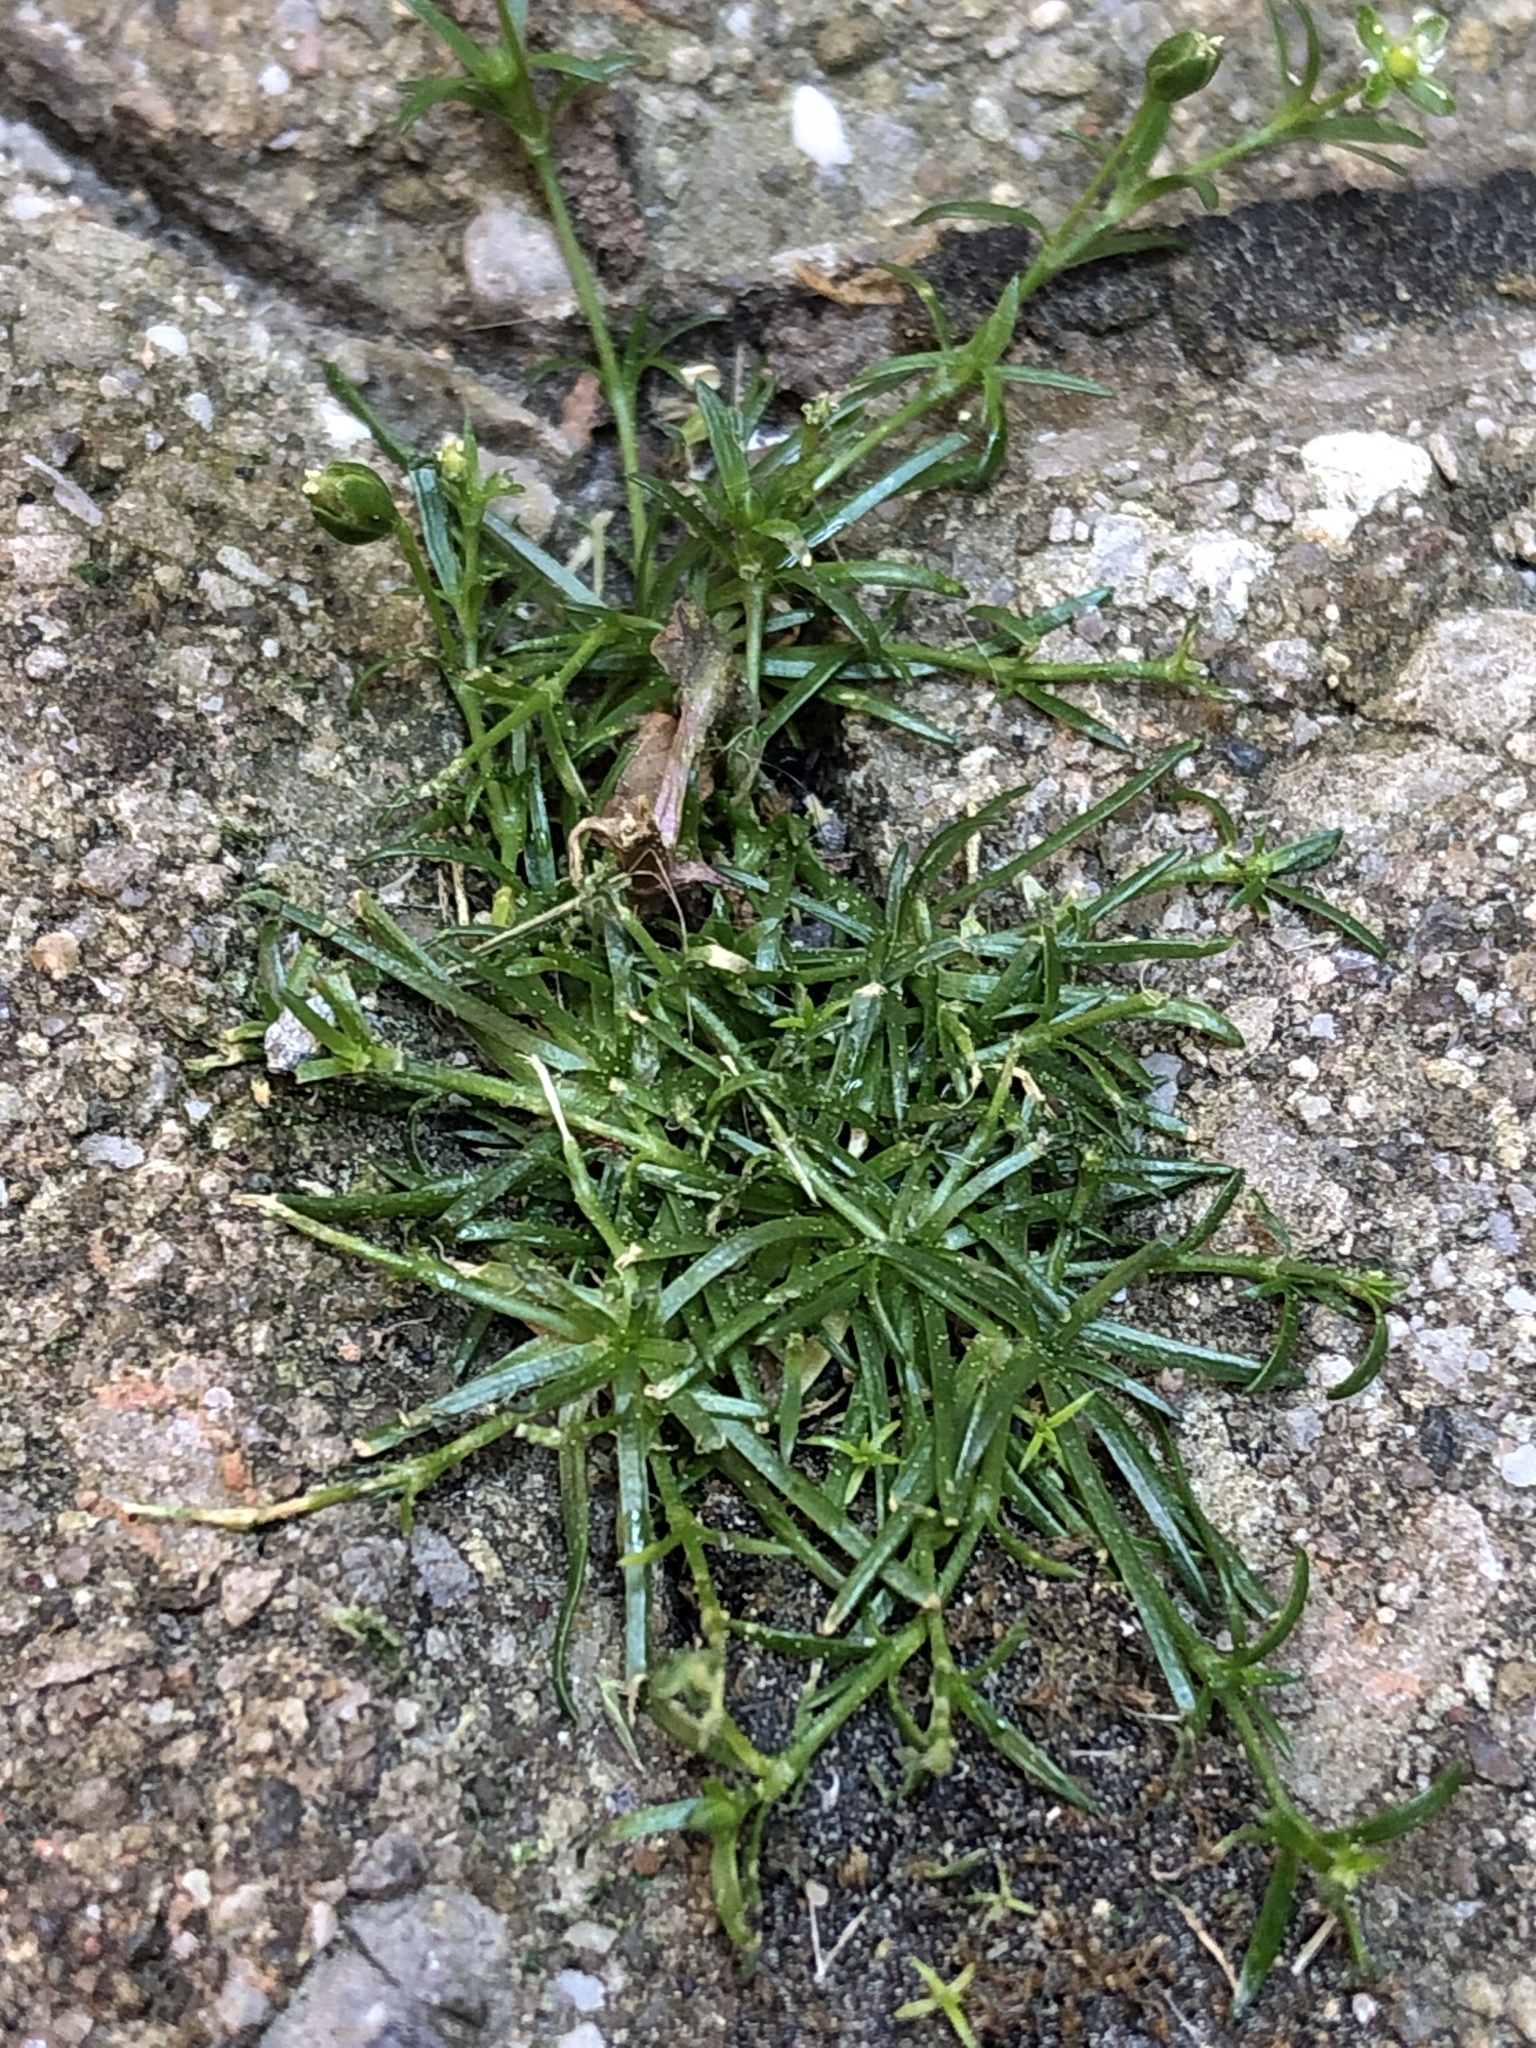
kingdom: Plantae
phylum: Tracheophyta
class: Magnoliopsida
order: Caryophyllales
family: Caryophyllaceae
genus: Sagina
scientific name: Sagina procumbens
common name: Procumbent pearlwort
